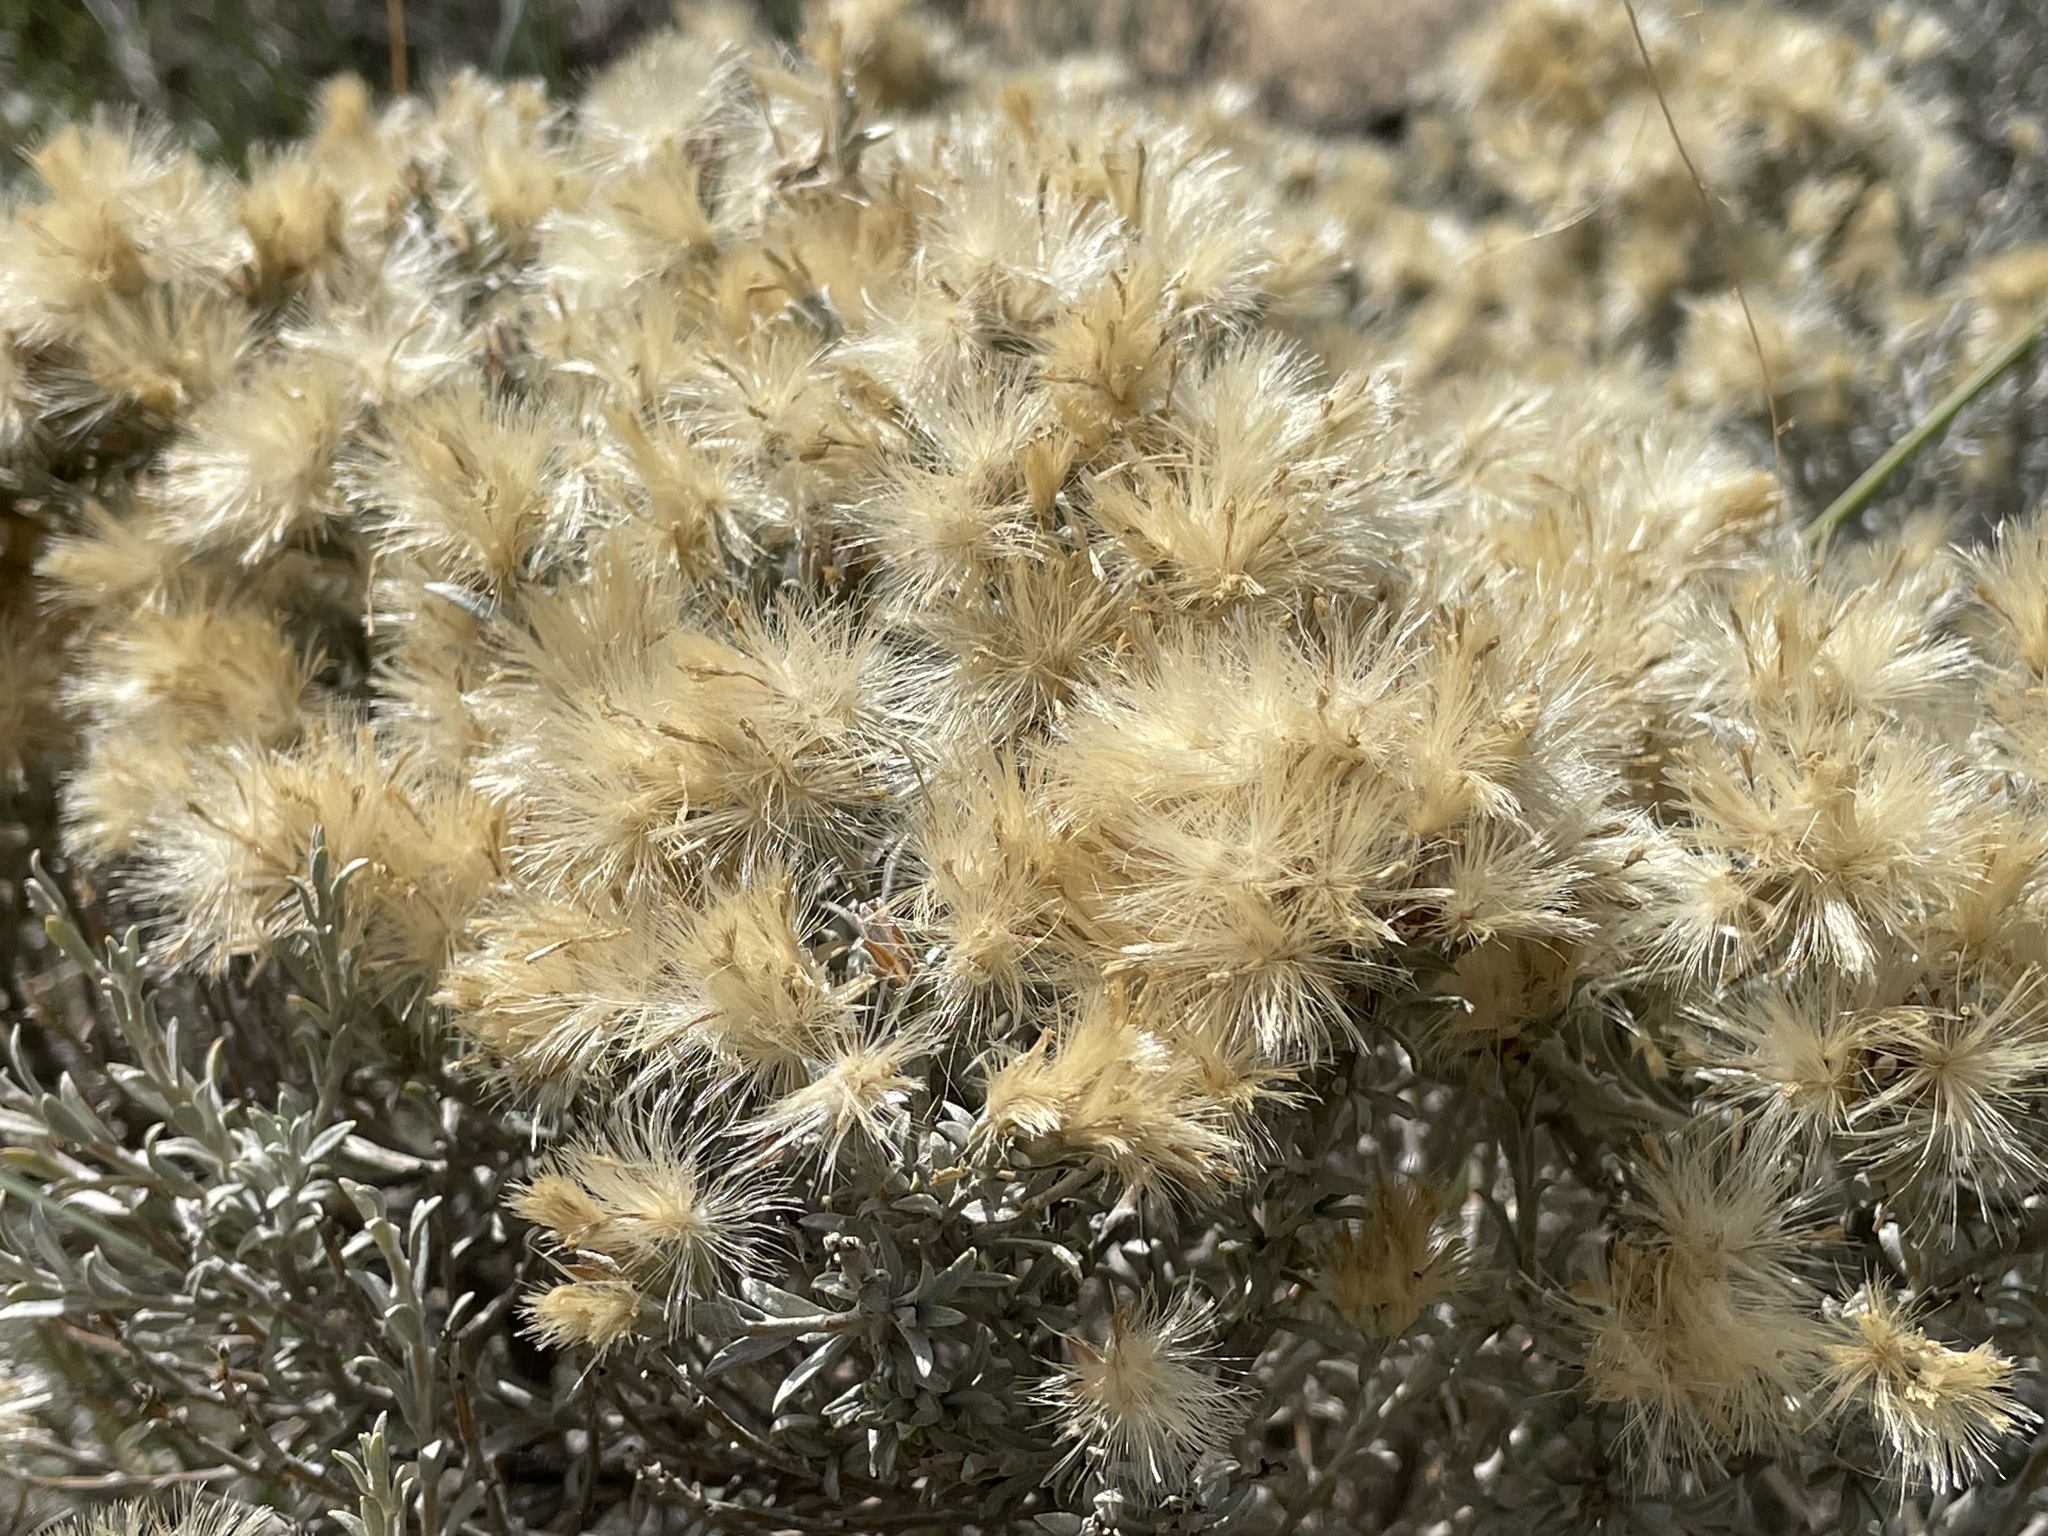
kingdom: Plantae
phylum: Tracheophyta
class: Magnoliopsida
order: Asterales
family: Asteraceae
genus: Tetradymia
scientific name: Tetradymia canescens
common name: Spineless horsebrush
